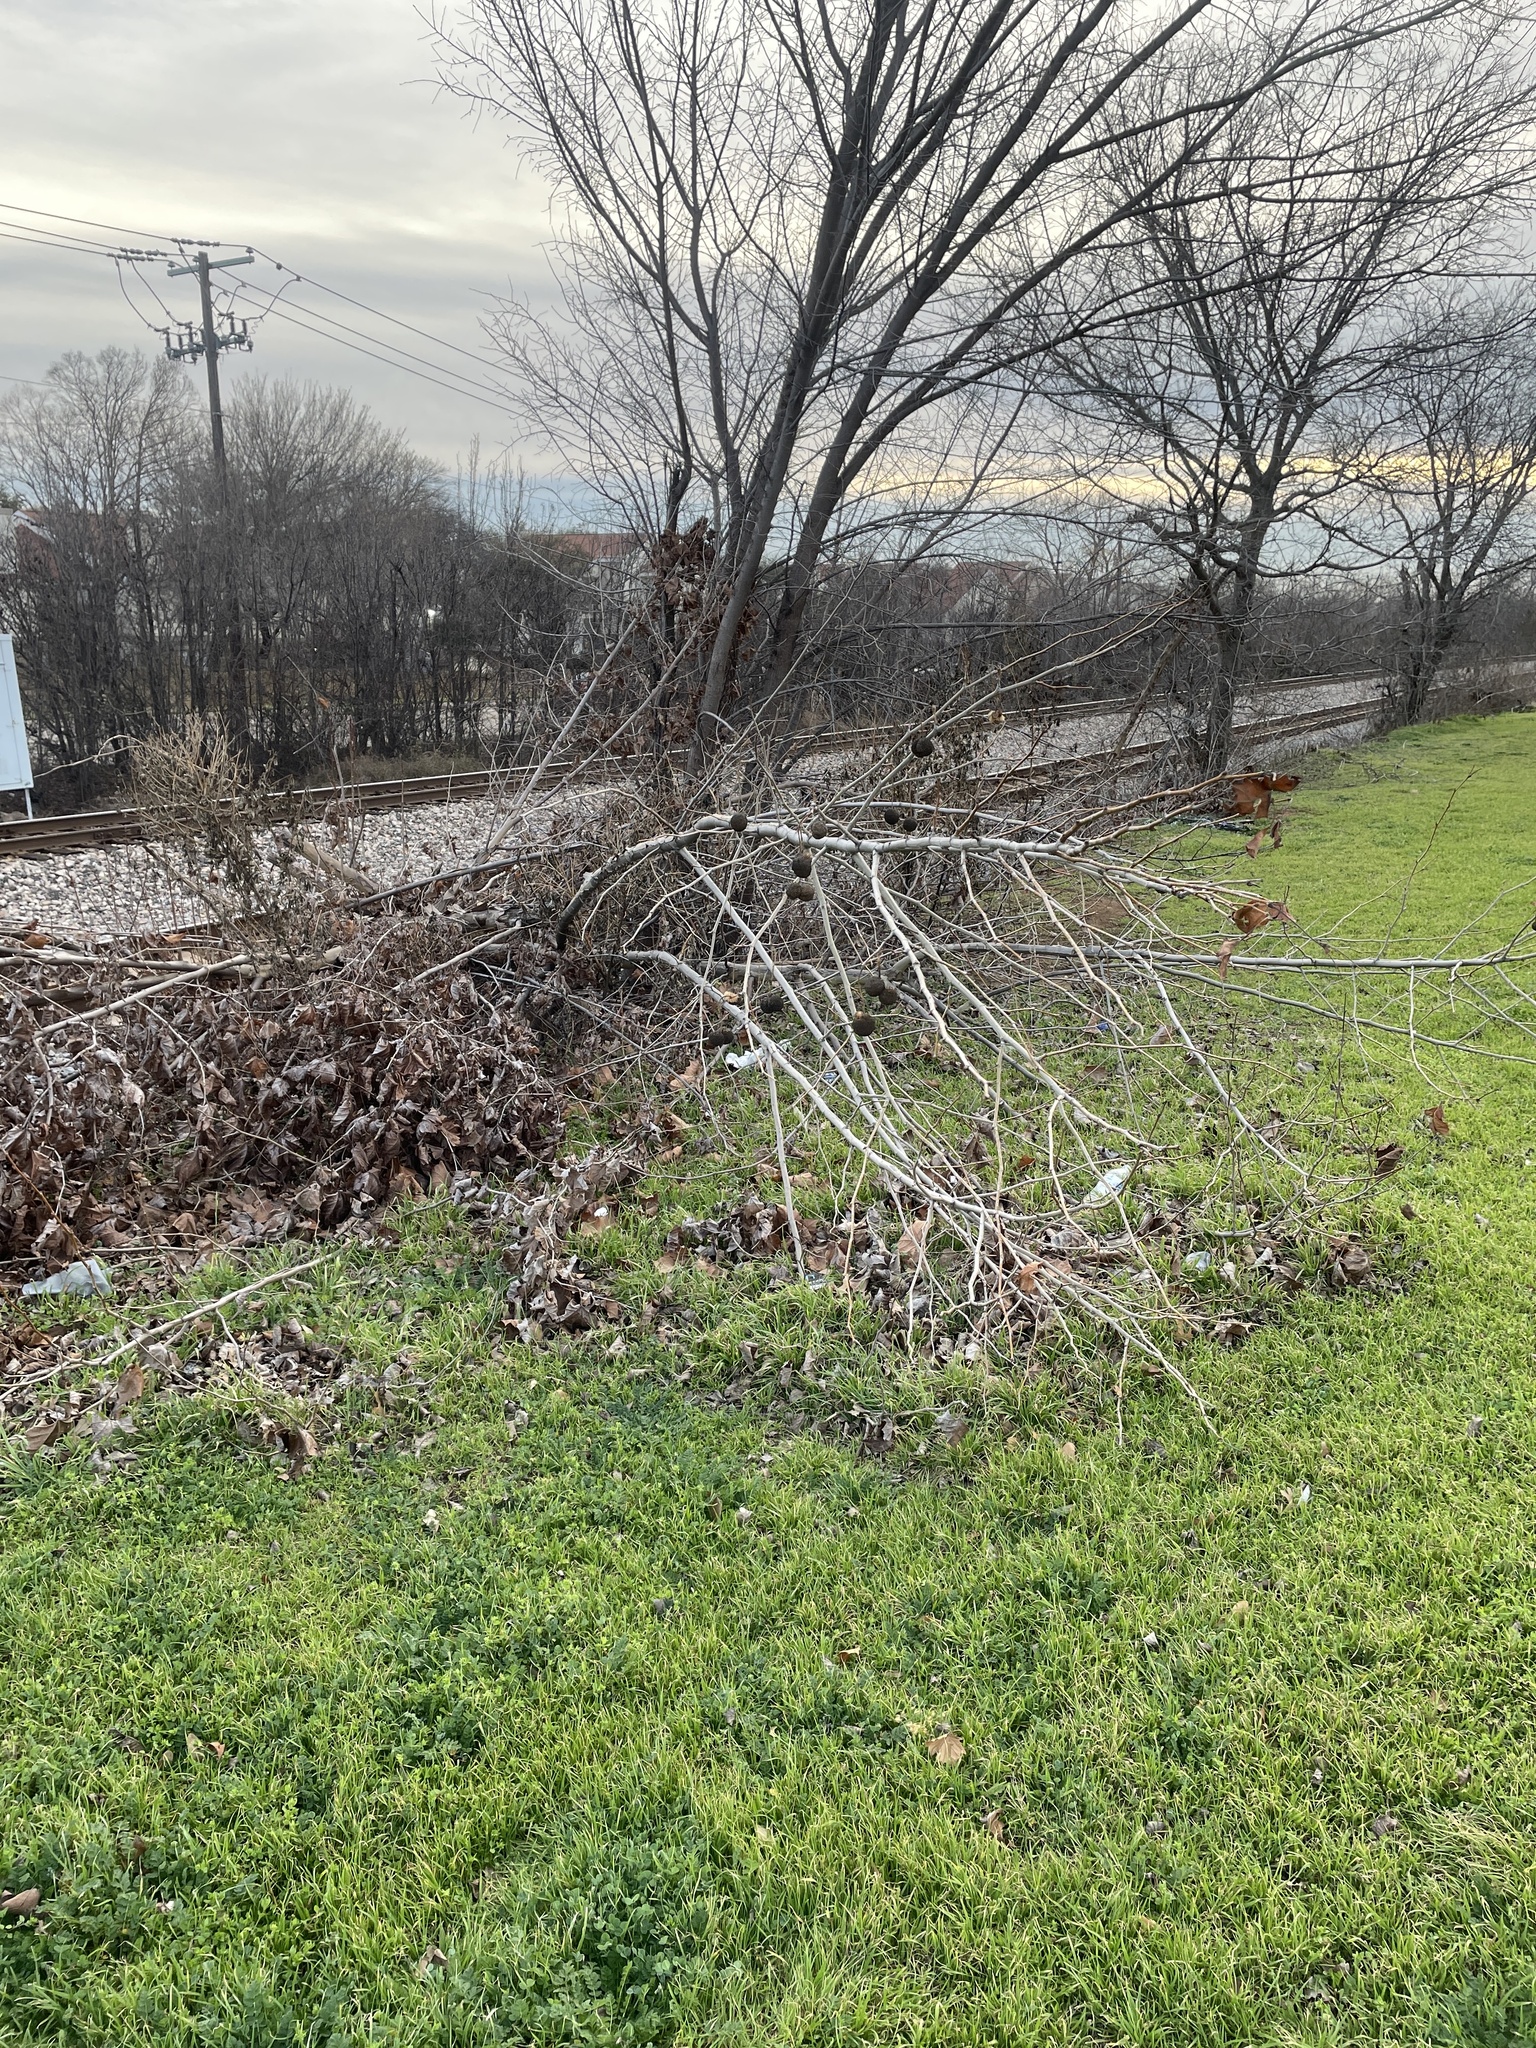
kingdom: Plantae
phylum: Tracheophyta
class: Magnoliopsida
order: Proteales
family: Platanaceae
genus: Platanus
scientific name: Platanus occidentalis
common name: American sycamore
